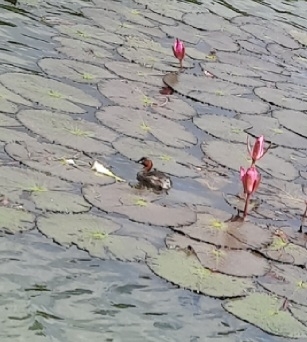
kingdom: Animalia
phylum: Chordata
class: Aves
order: Podicipediformes
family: Podicipedidae
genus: Tachybaptus
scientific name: Tachybaptus ruficollis
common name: Little grebe
